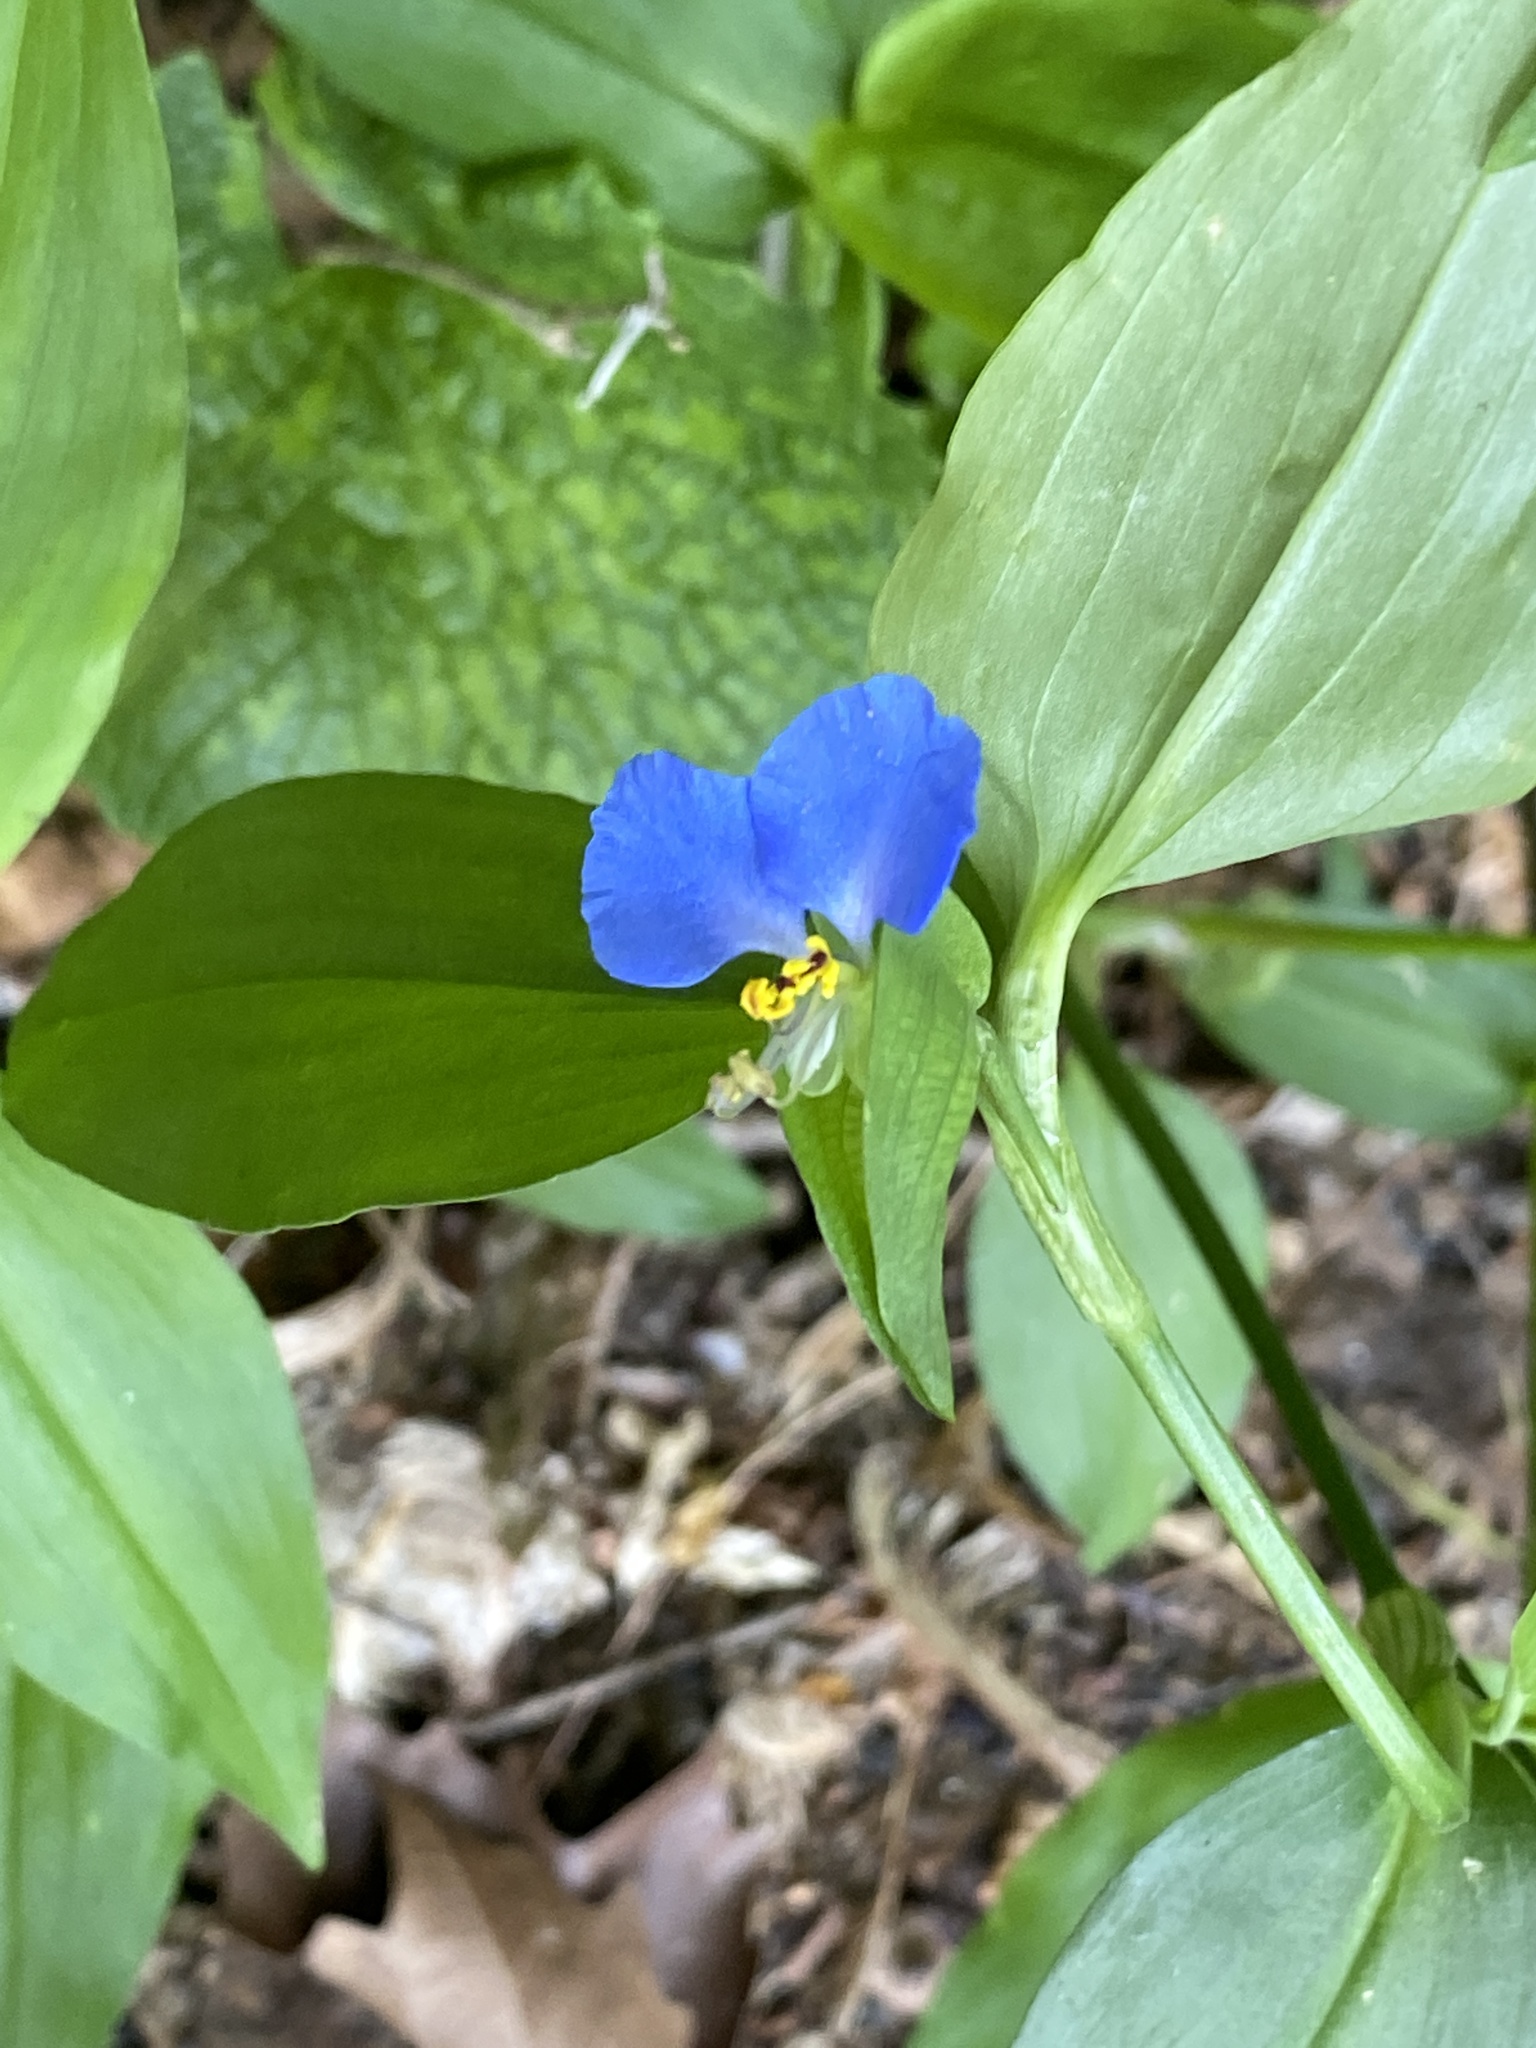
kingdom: Plantae
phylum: Tracheophyta
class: Liliopsida
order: Commelinales
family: Commelinaceae
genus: Commelina
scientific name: Commelina communis
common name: Asiatic dayflower
